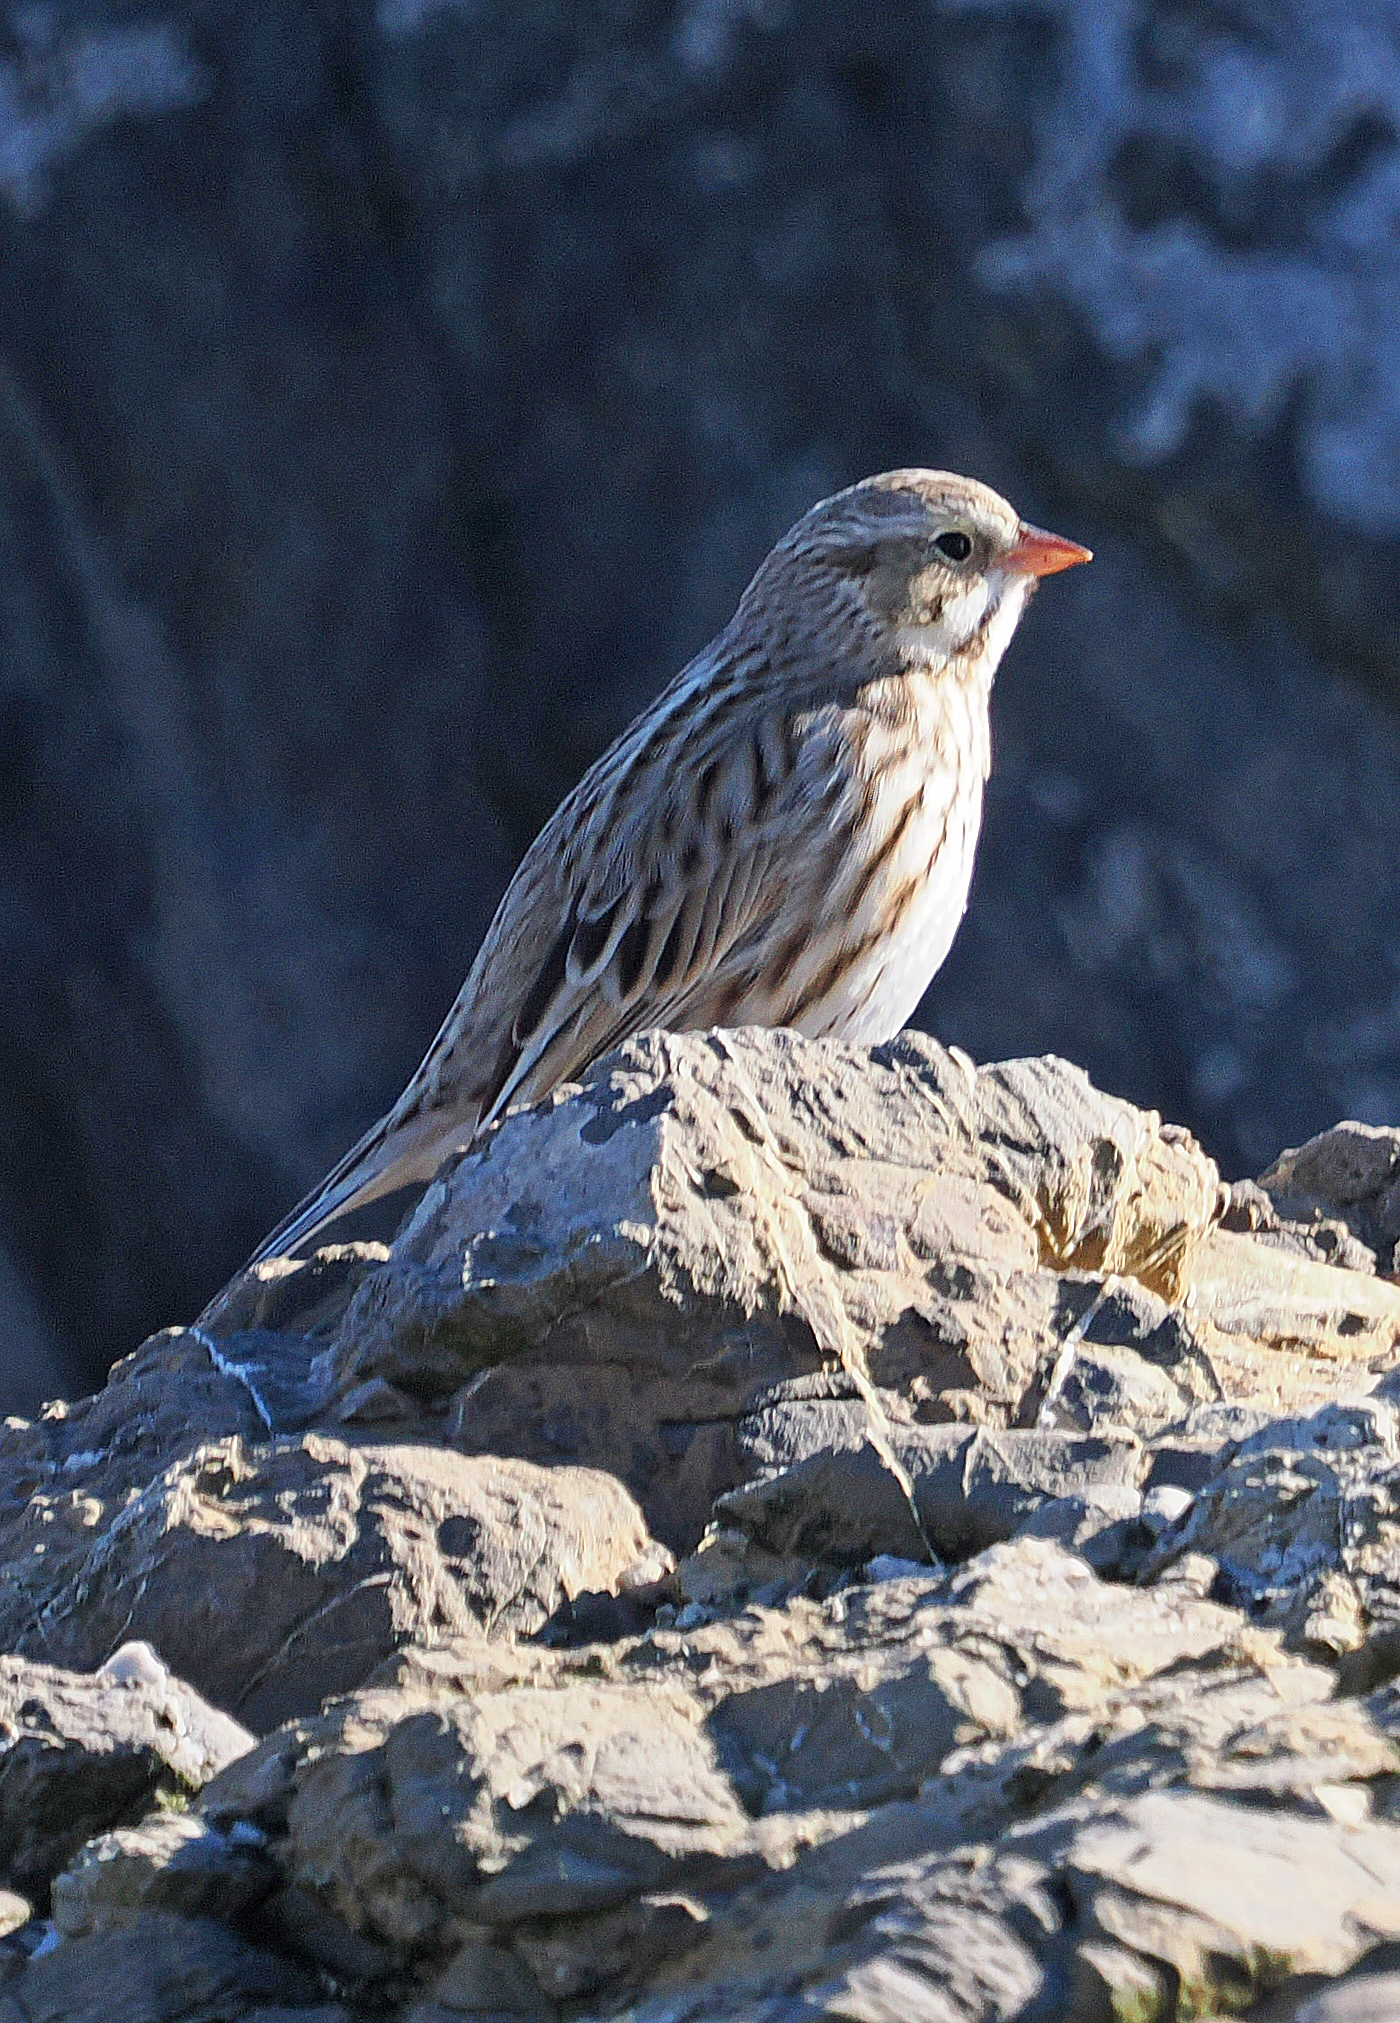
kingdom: Animalia
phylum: Chordata
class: Aves
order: Passeriformes
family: Passerellidae
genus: Passerculus
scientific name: Passerculus sandwichensis
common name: Savannah sparrow
